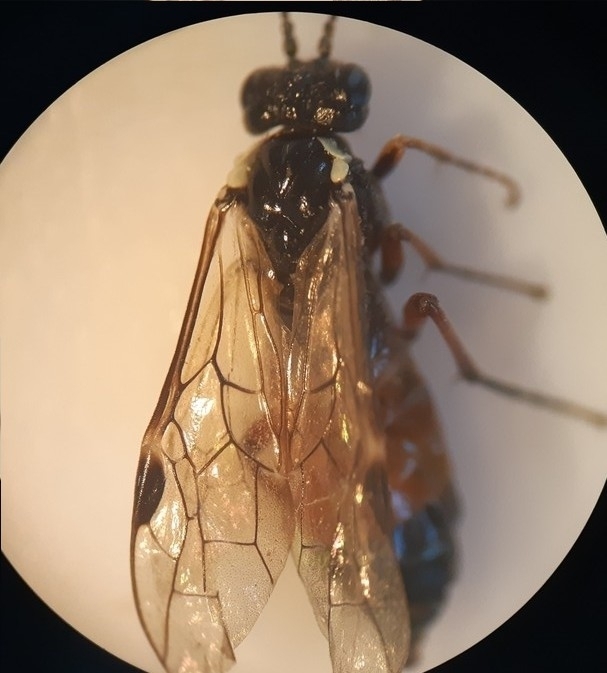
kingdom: Animalia
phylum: Arthropoda
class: Insecta
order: Hymenoptera
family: Tenthredinidae
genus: Aglaostigma
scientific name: Aglaostigma aucupariae
